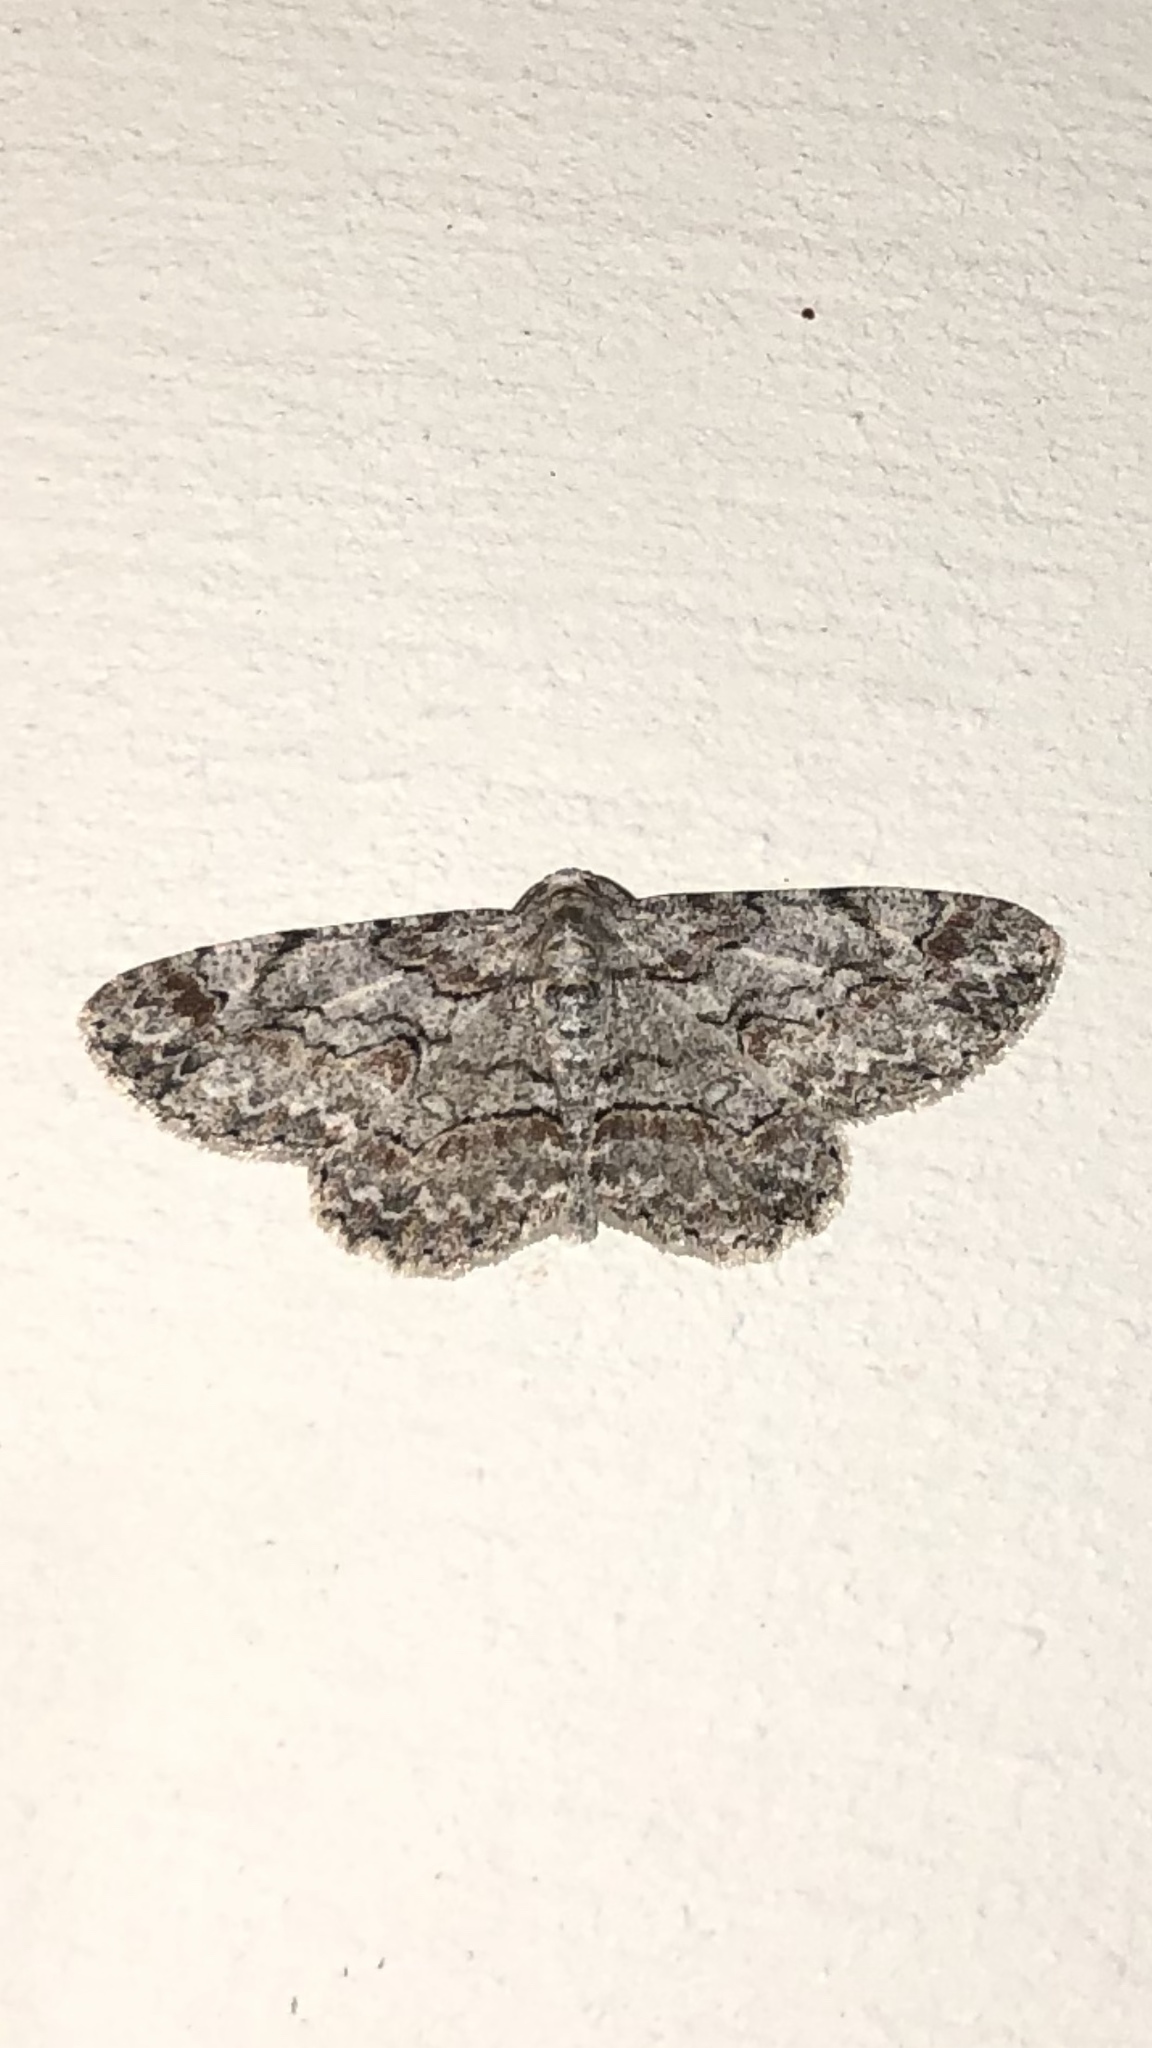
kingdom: Animalia
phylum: Arthropoda
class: Insecta
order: Lepidoptera
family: Geometridae
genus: Iridopsis
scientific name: Iridopsis defectaria
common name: Brown-shaded gray
